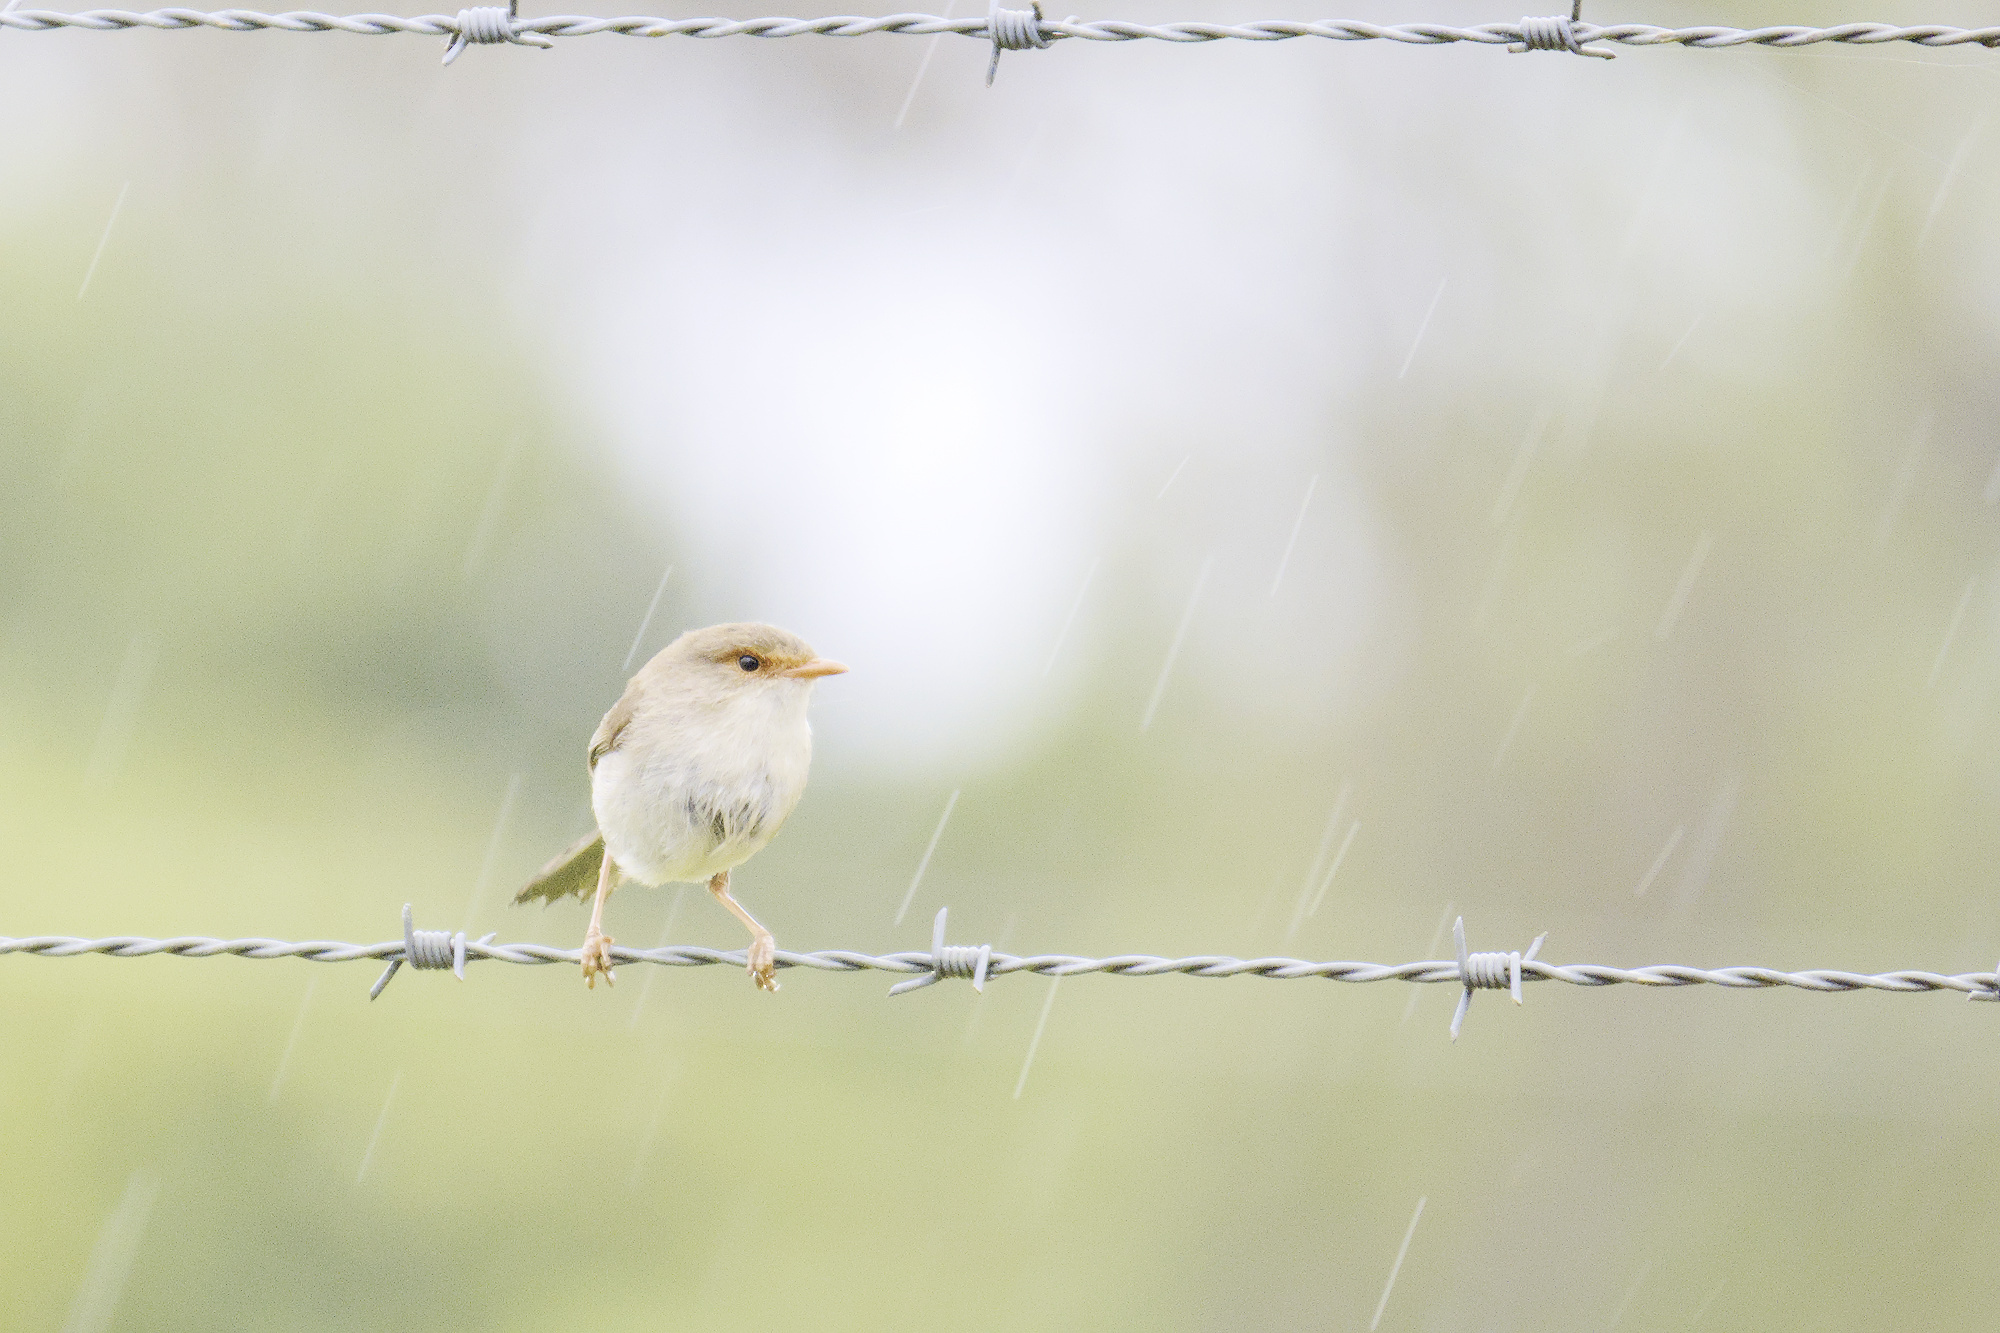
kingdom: Animalia
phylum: Chordata
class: Aves
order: Passeriformes
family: Maluridae
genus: Malurus
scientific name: Malurus cyaneus
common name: Superb fairywren
